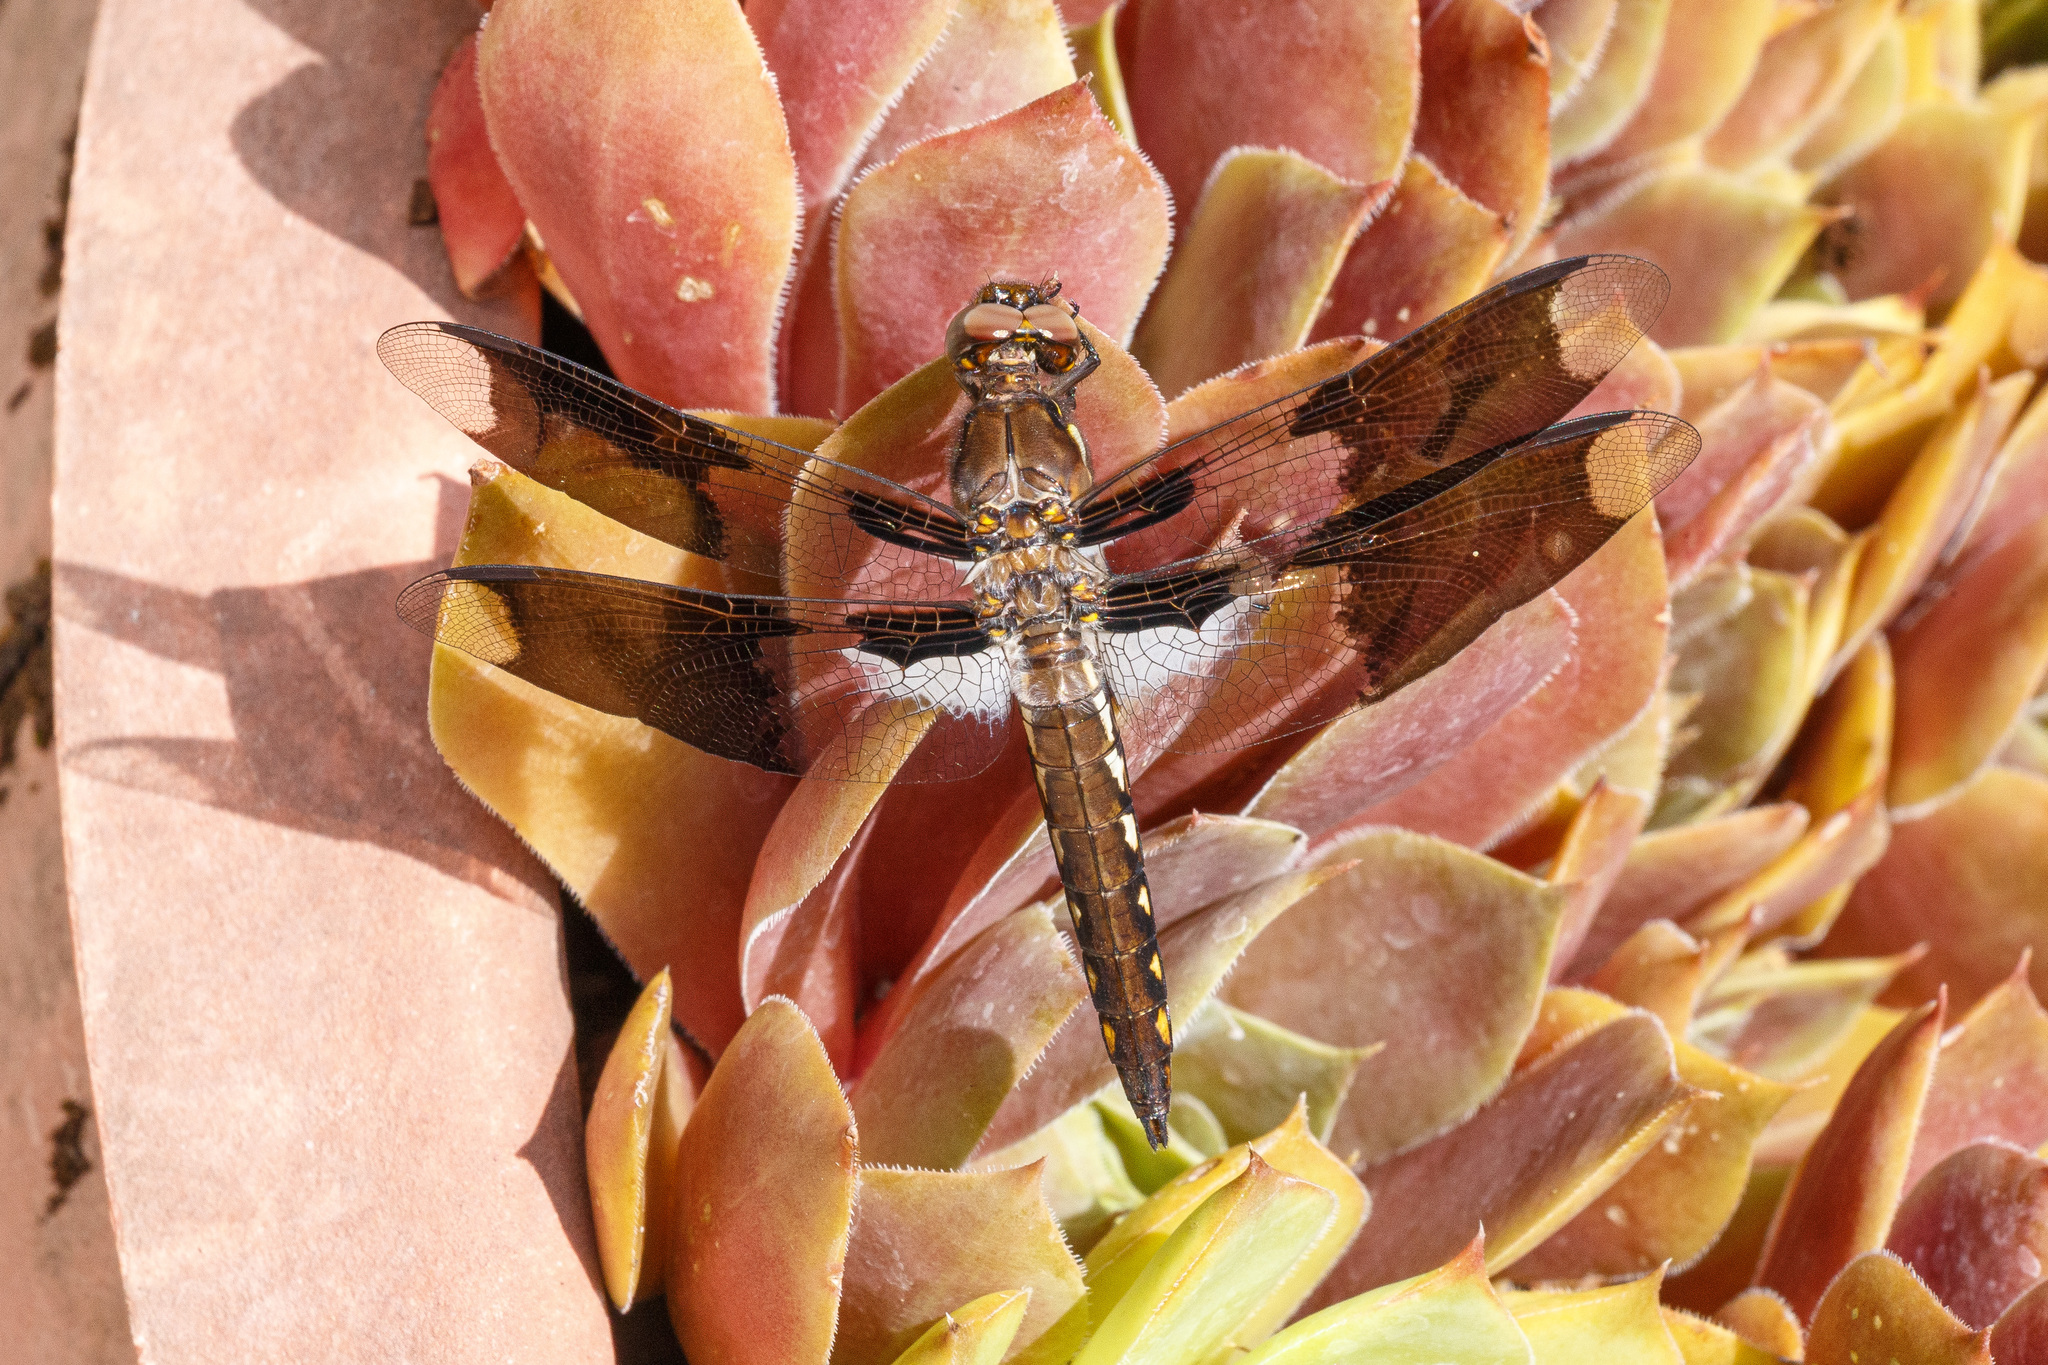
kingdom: Animalia
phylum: Arthropoda
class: Insecta
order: Odonata
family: Libellulidae
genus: Plathemis
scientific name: Plathemis lydia
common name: Common whitetail
